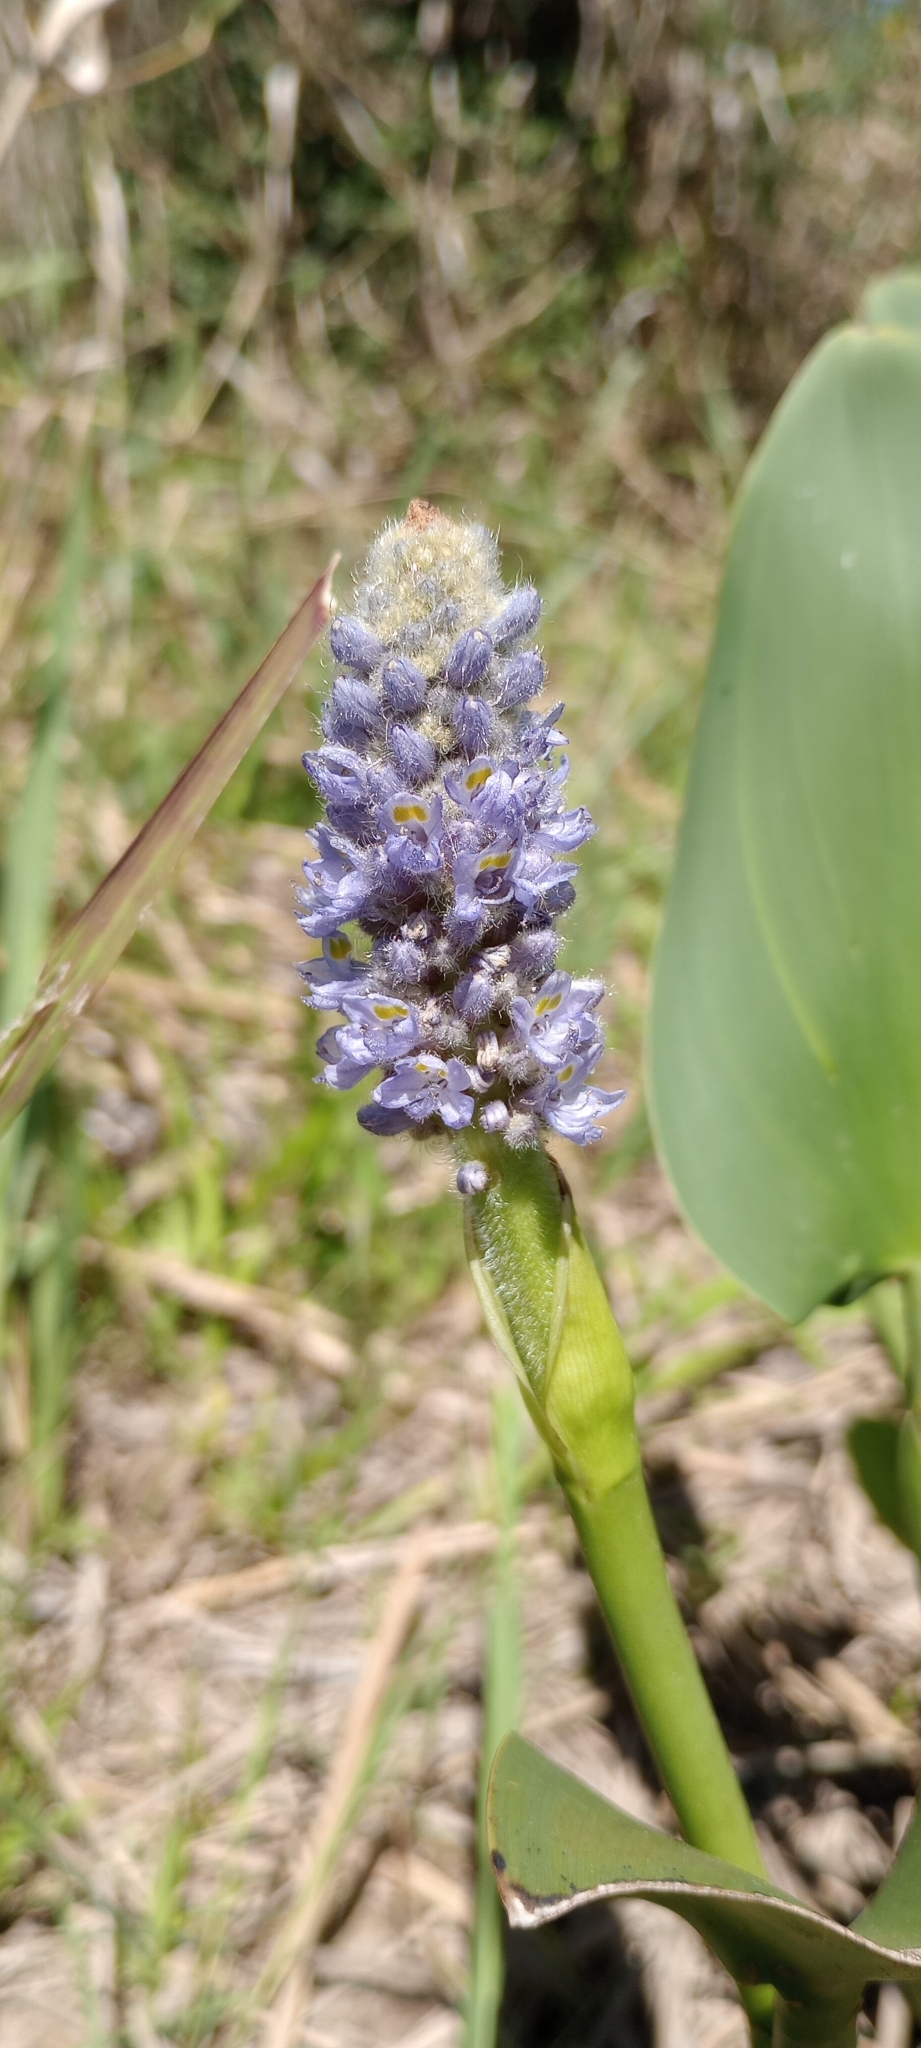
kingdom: Plantae
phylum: Tracheophyta
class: Liliopsida
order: Commelinales
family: Pontederiaceae
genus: Pontederia
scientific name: Pontederia cordata
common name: Pickerelweed
